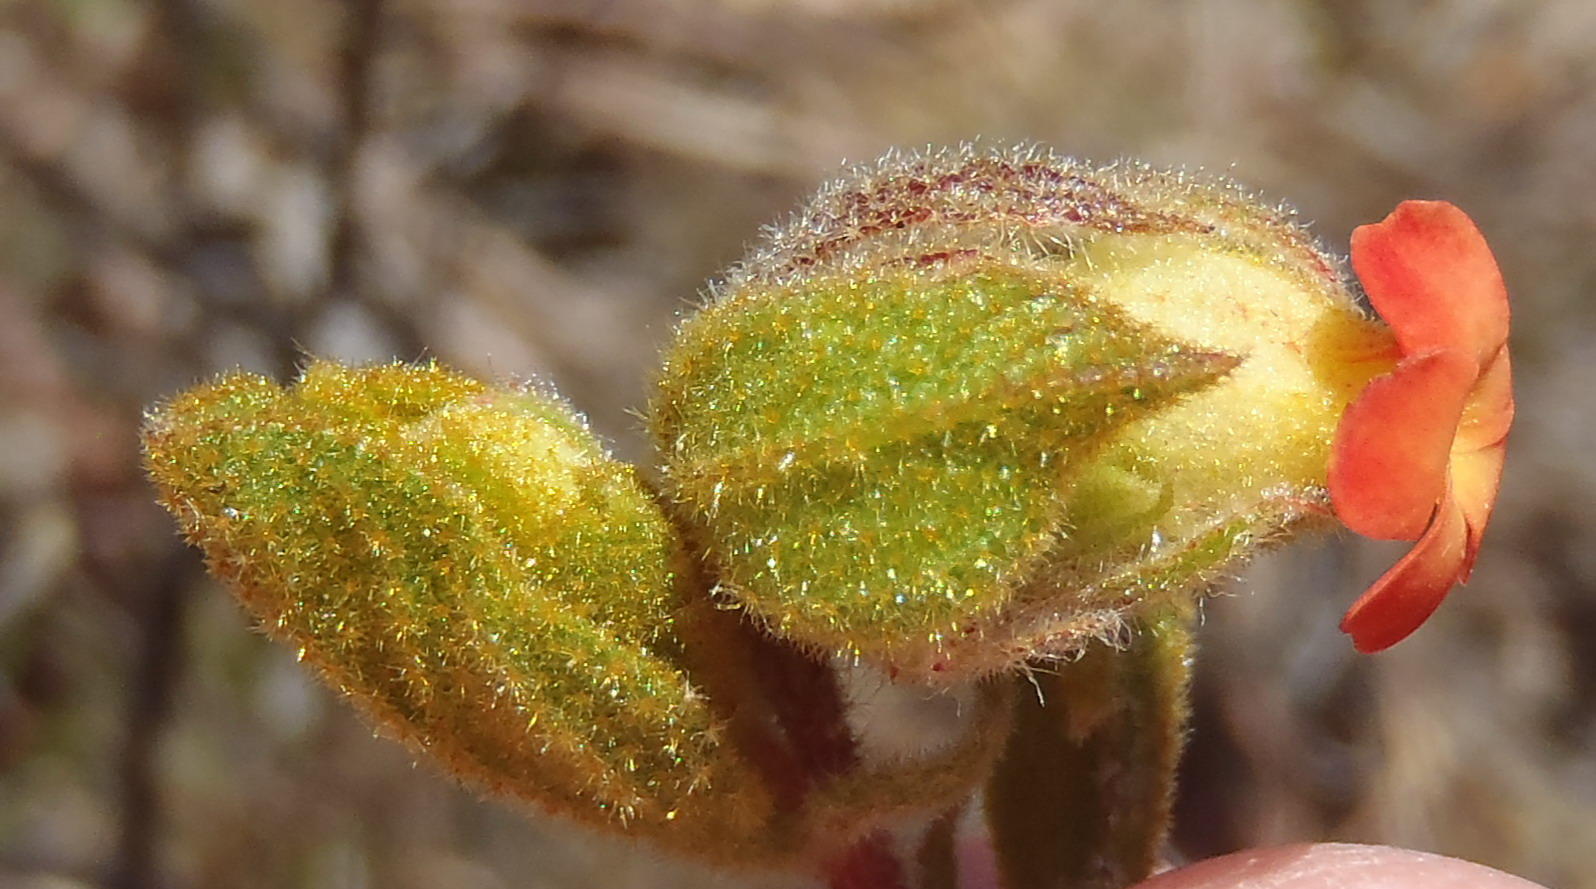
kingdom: Plantae
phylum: Tracheophyta
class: Magnoliopsida
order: Malvales
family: Malvaceae
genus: Hermannia
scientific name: Hermannia salviifolia
